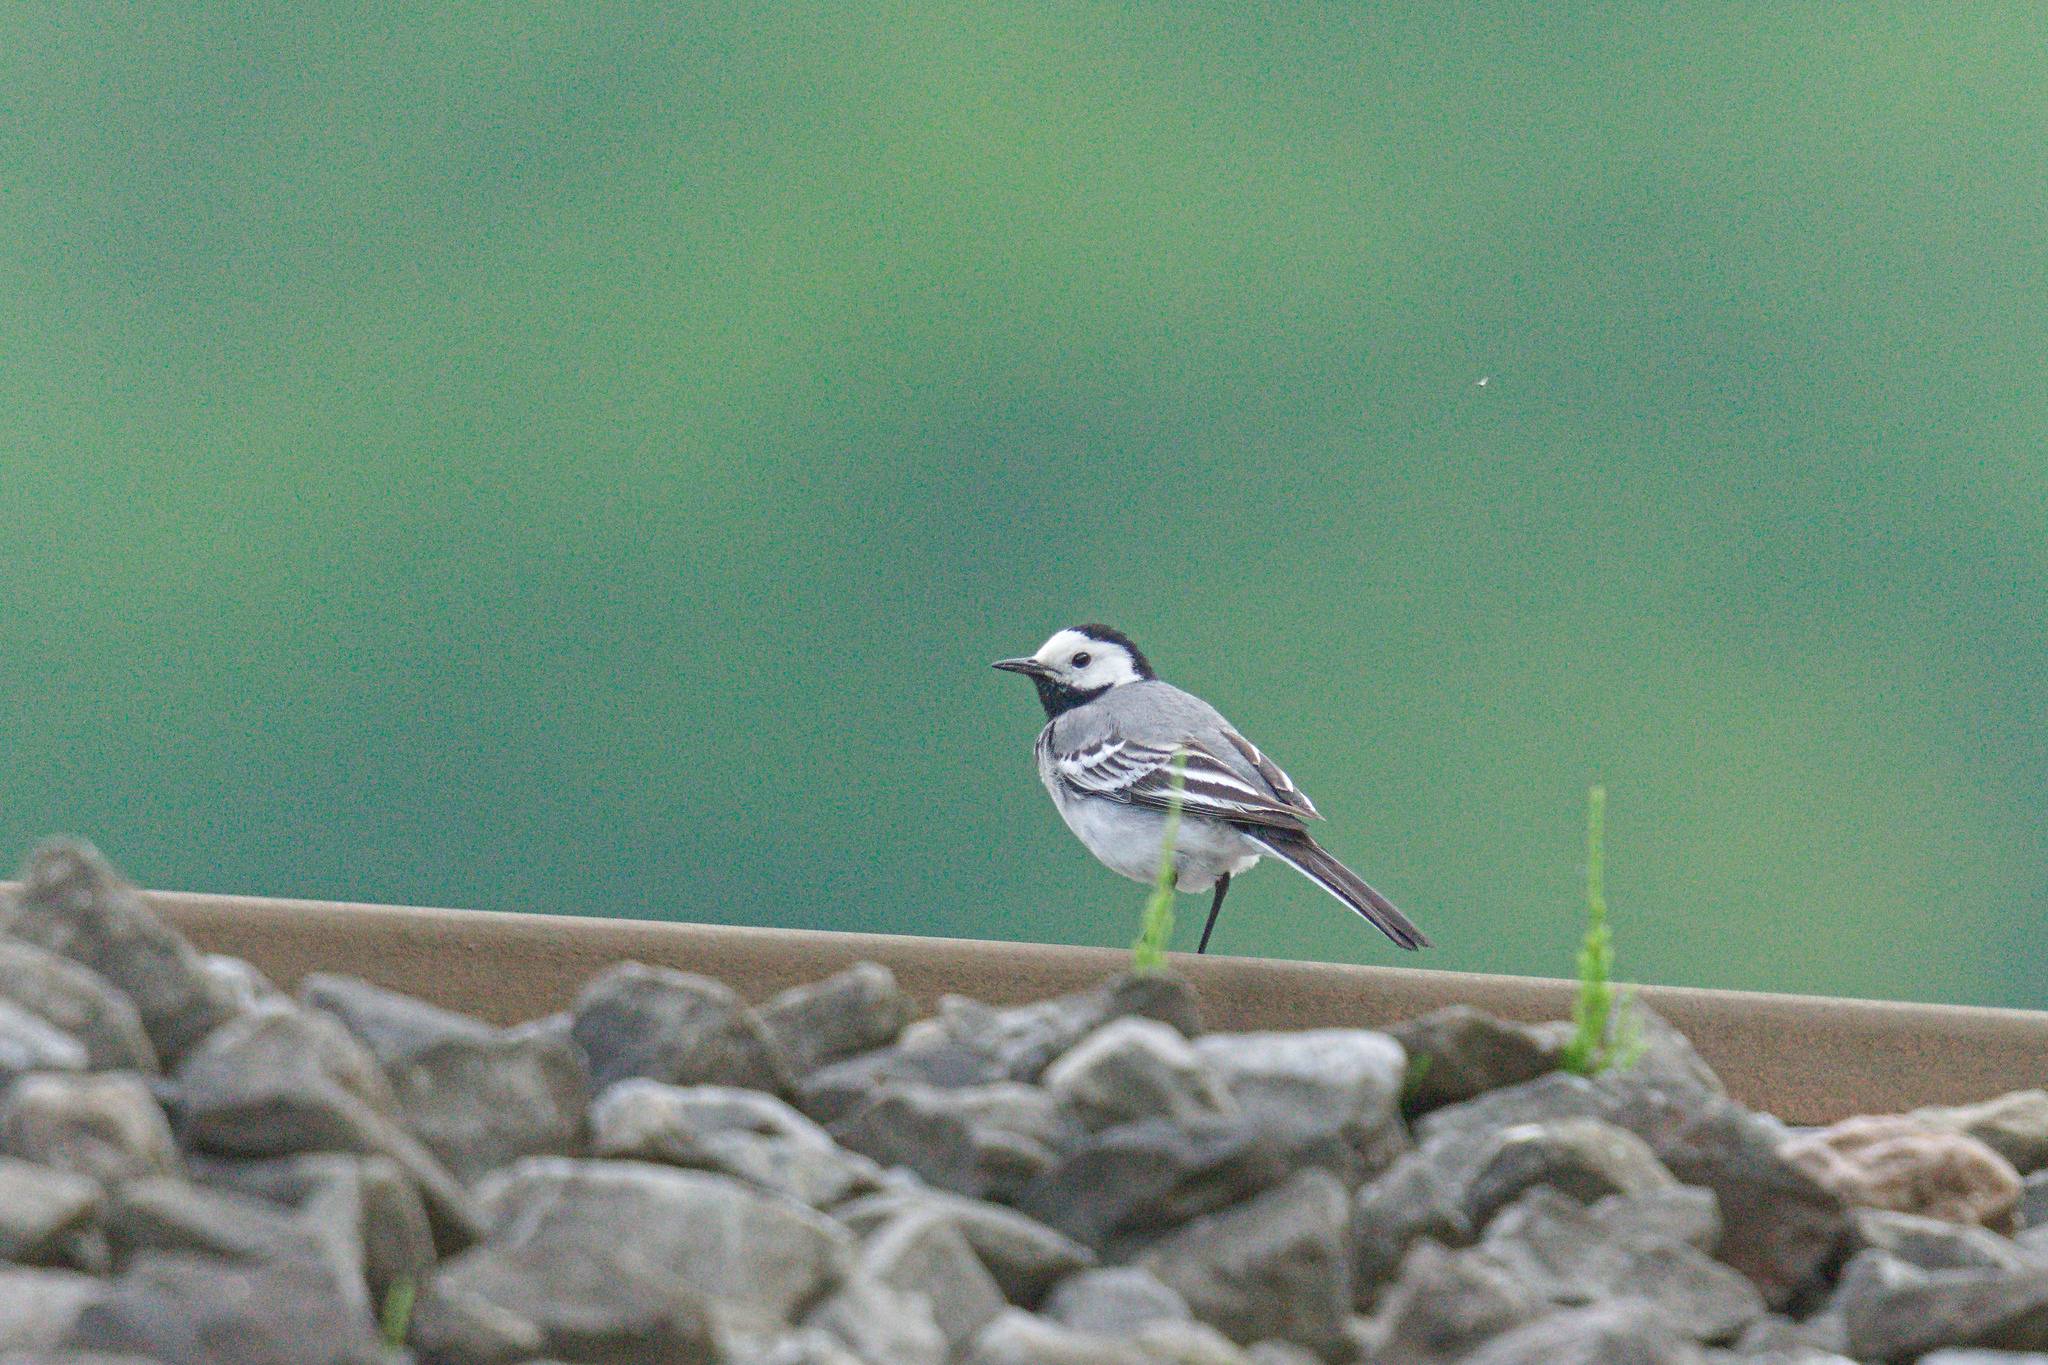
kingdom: Animalia
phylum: Chordata
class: Aves
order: Passeriformes
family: Motacillidae
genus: Motacilla
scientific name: Motacilla alba
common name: White wagtail
